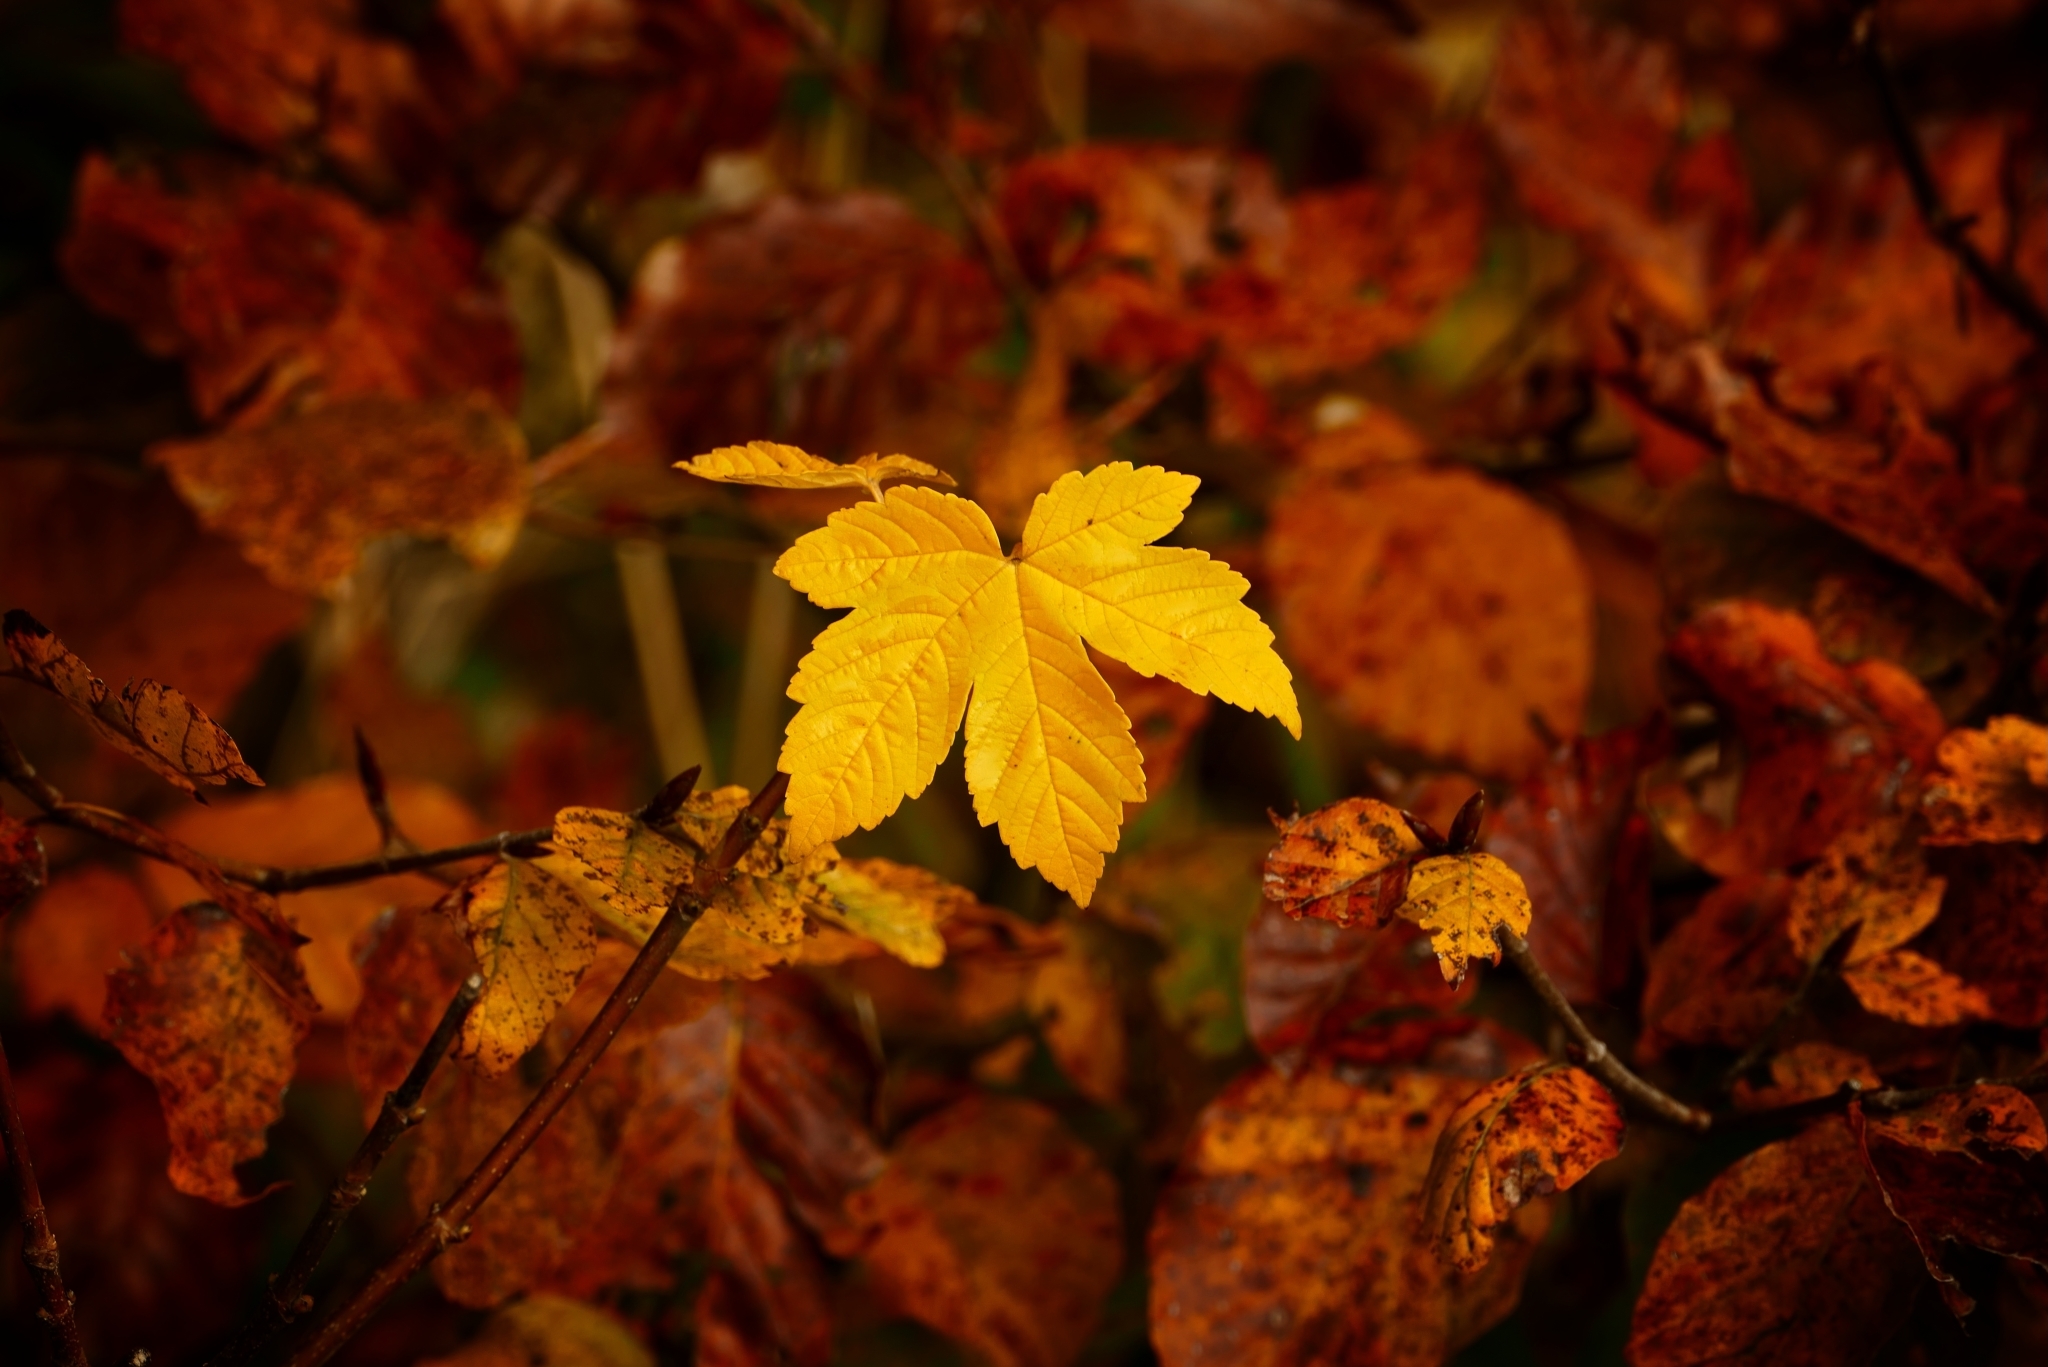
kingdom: Plantae
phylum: Tracheophyta
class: Magnoliopsida
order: Sapindales
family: Sapindaceae
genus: Acer
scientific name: Acer pseudoplatanus
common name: Sycamore
